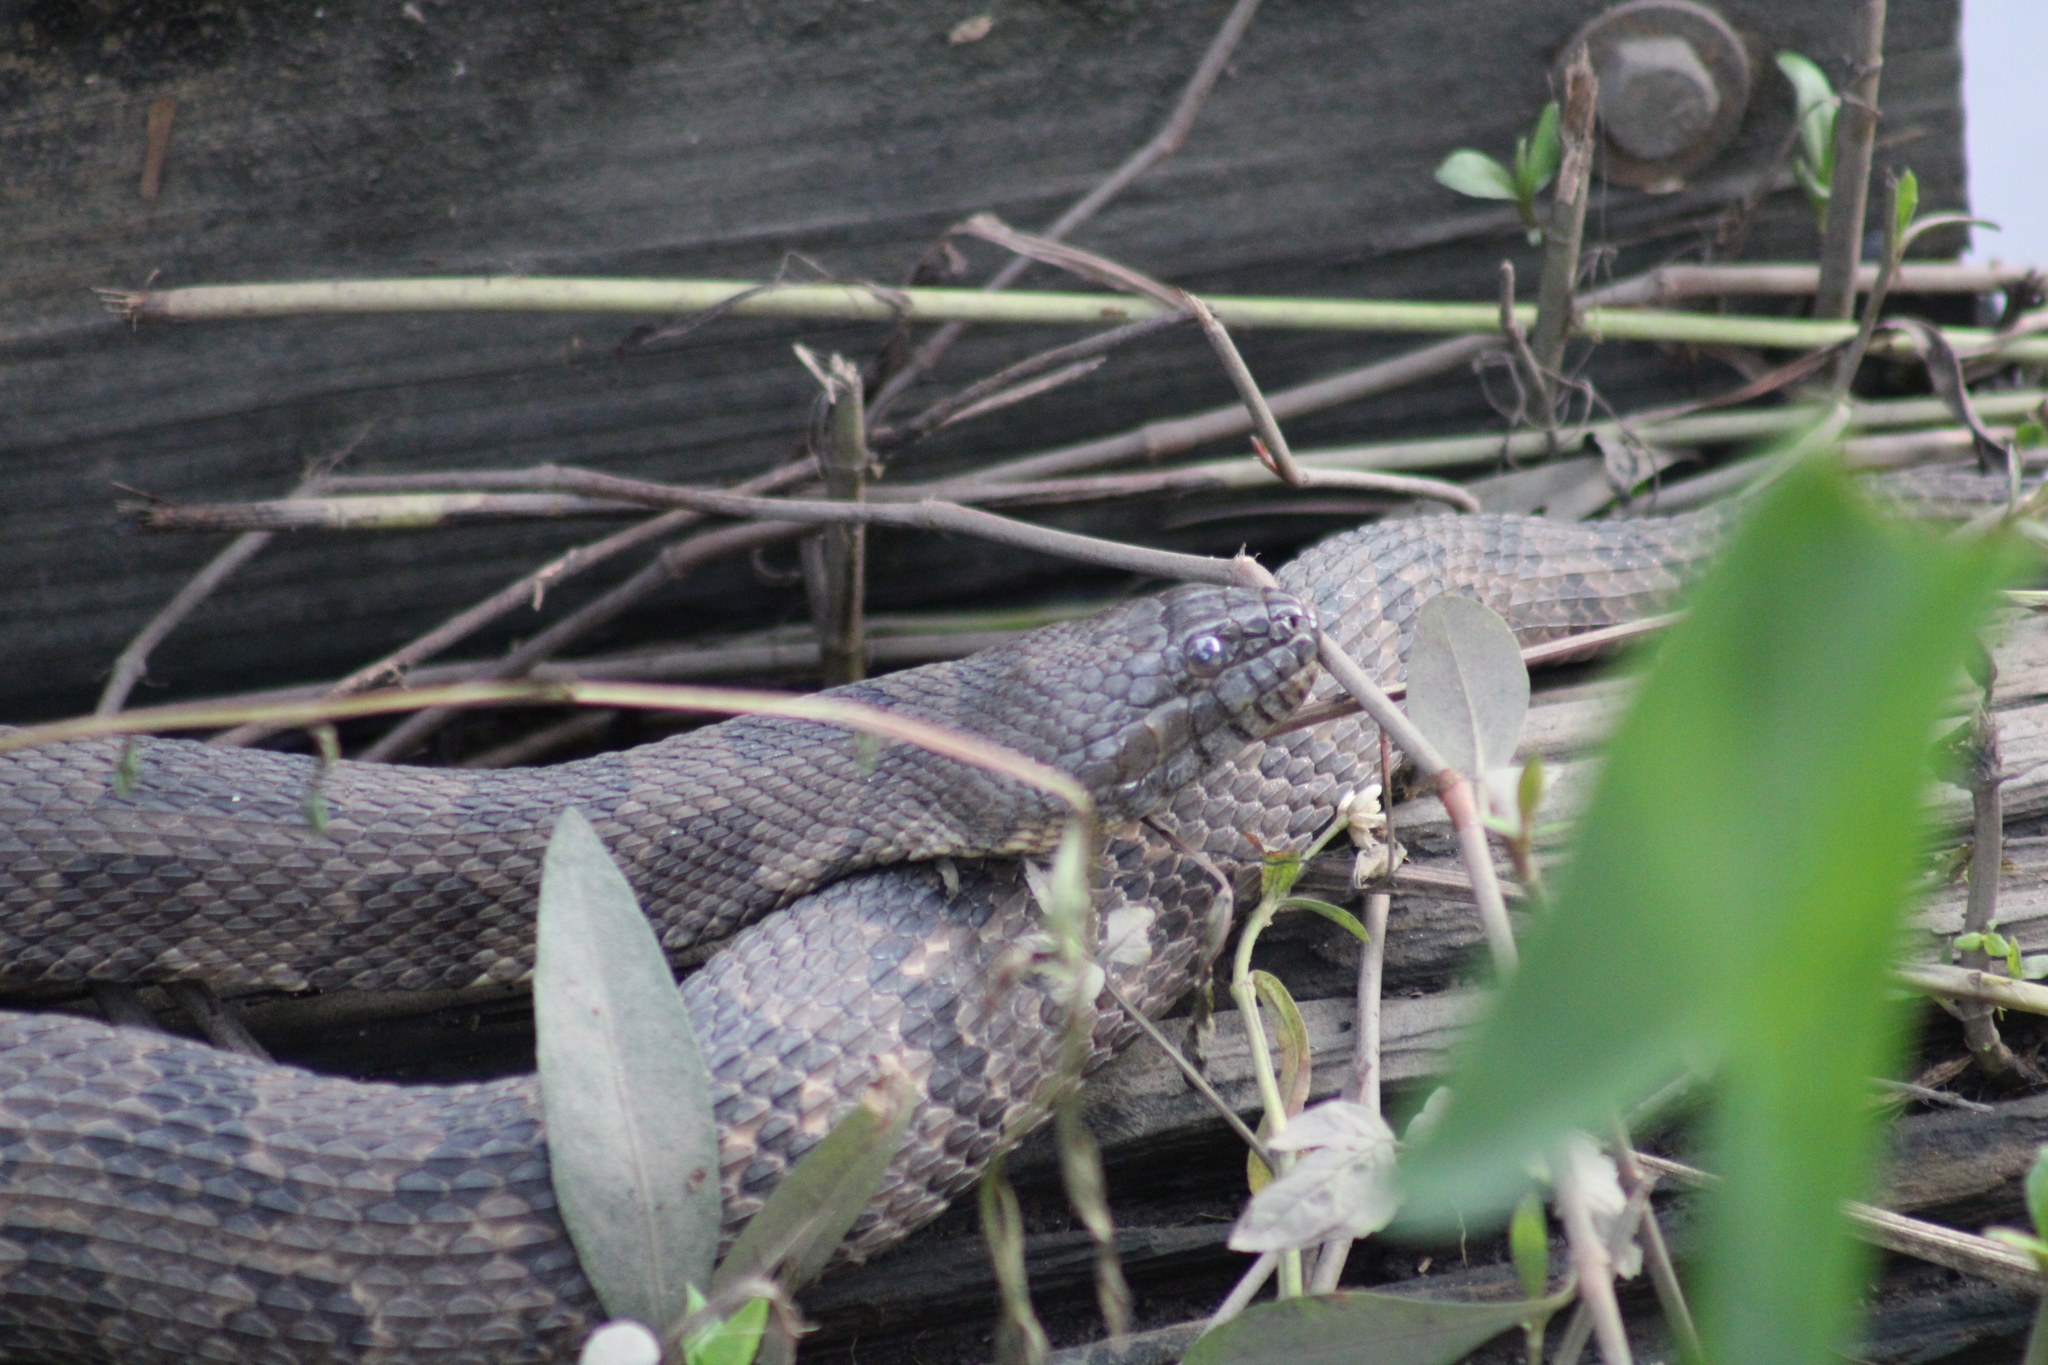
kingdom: Animalia
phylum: Chordata
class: Squamata
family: Colubridae
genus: Nerodia
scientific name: Nerodia taxispilota
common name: Brown water snake
